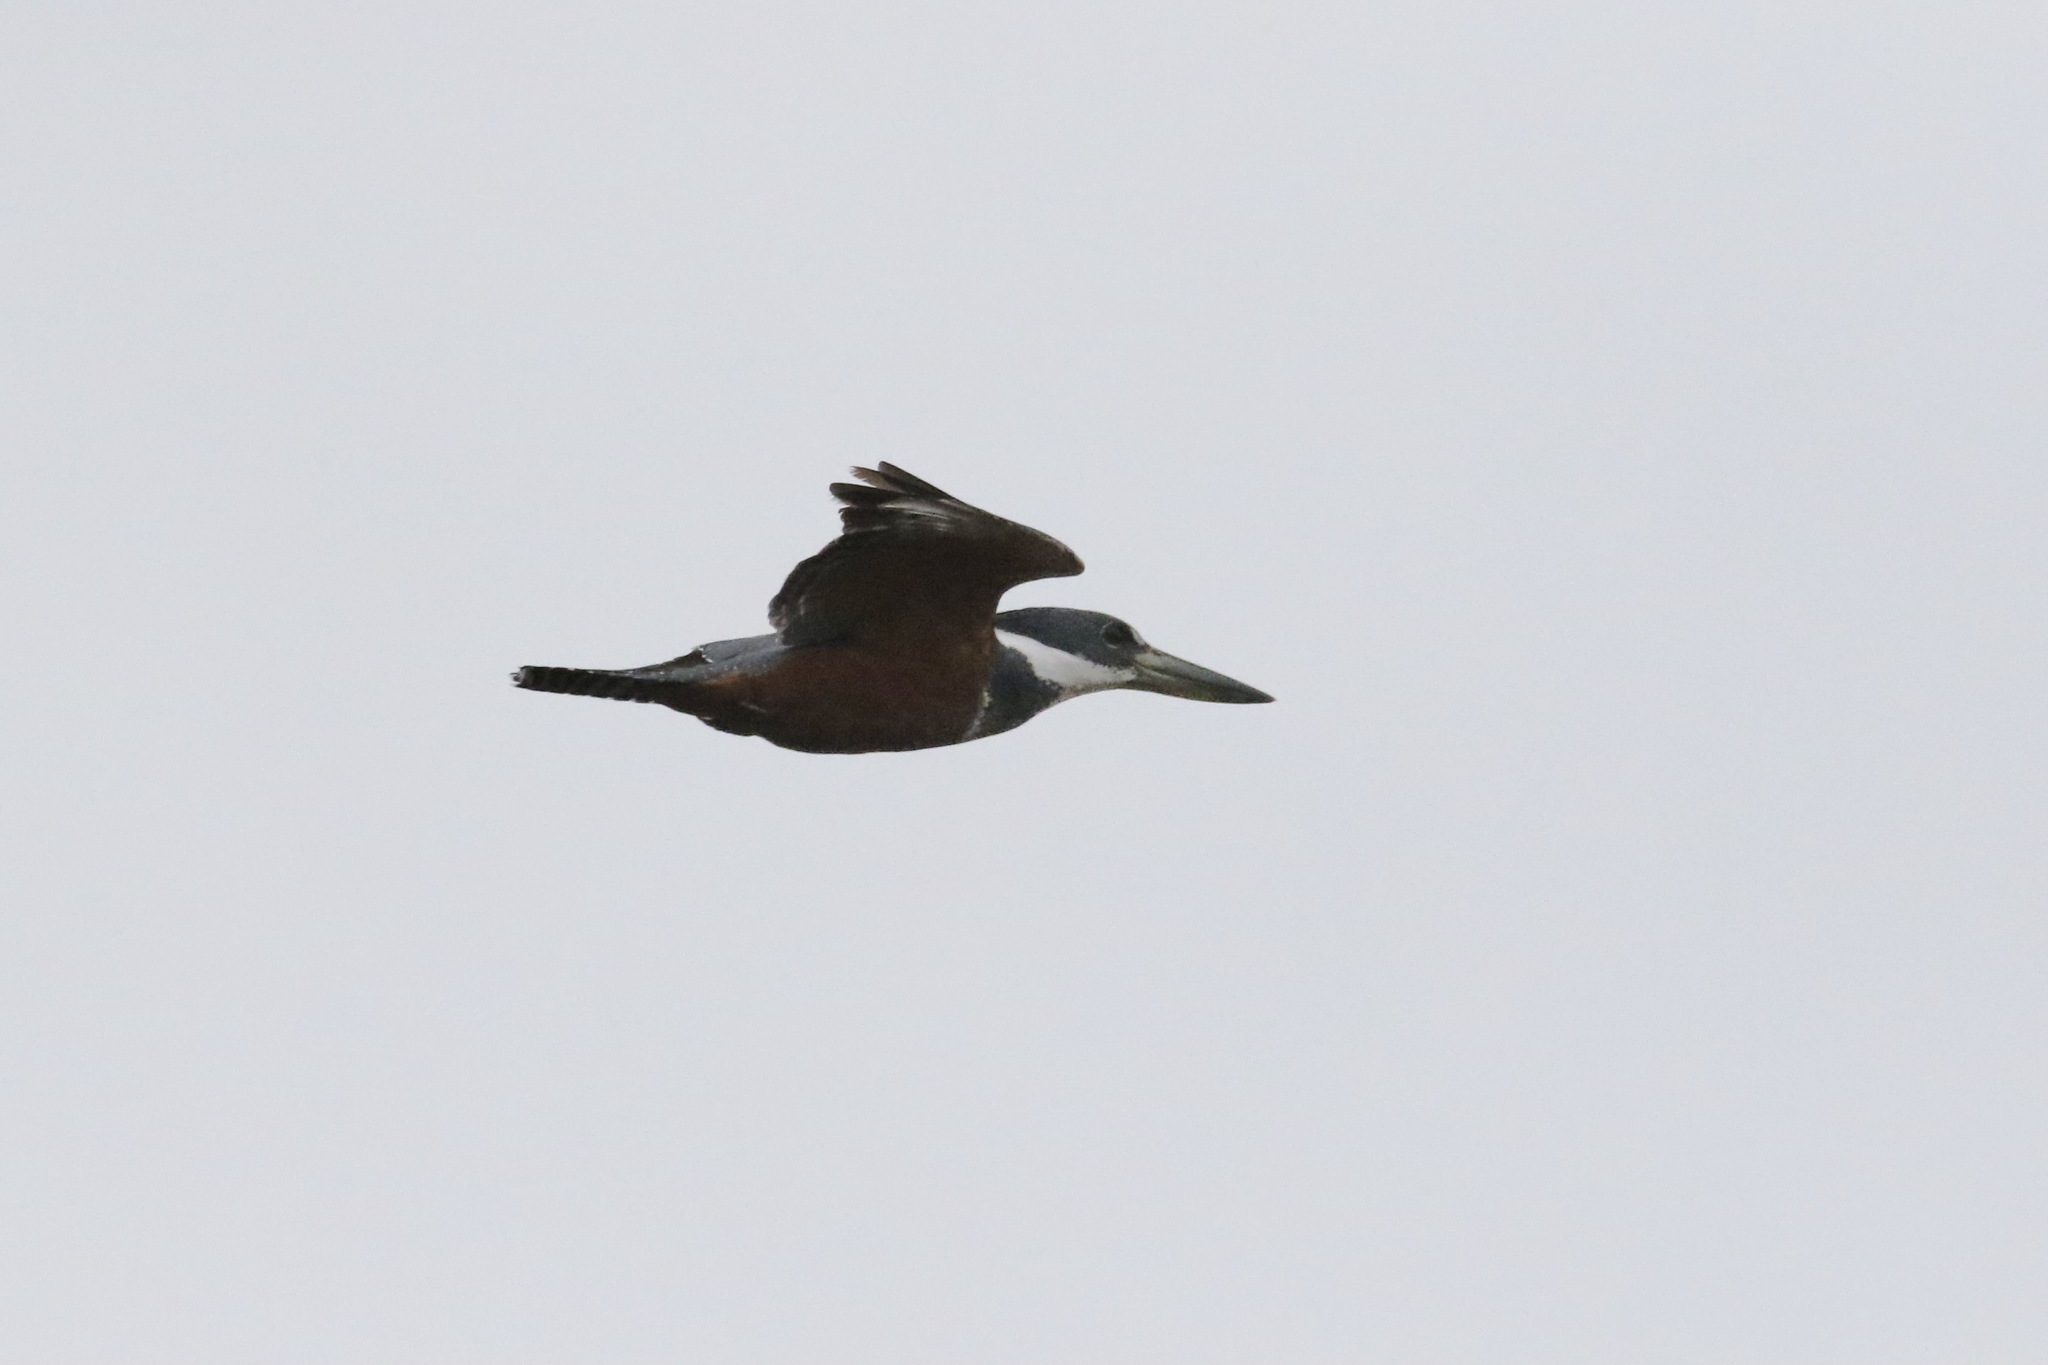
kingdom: Animalia
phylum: Chordata
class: Aves
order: Coraciiformes
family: Alcedinidae
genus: Megaceryle
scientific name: Megaceryle torquata
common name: Ringed kingfisher
